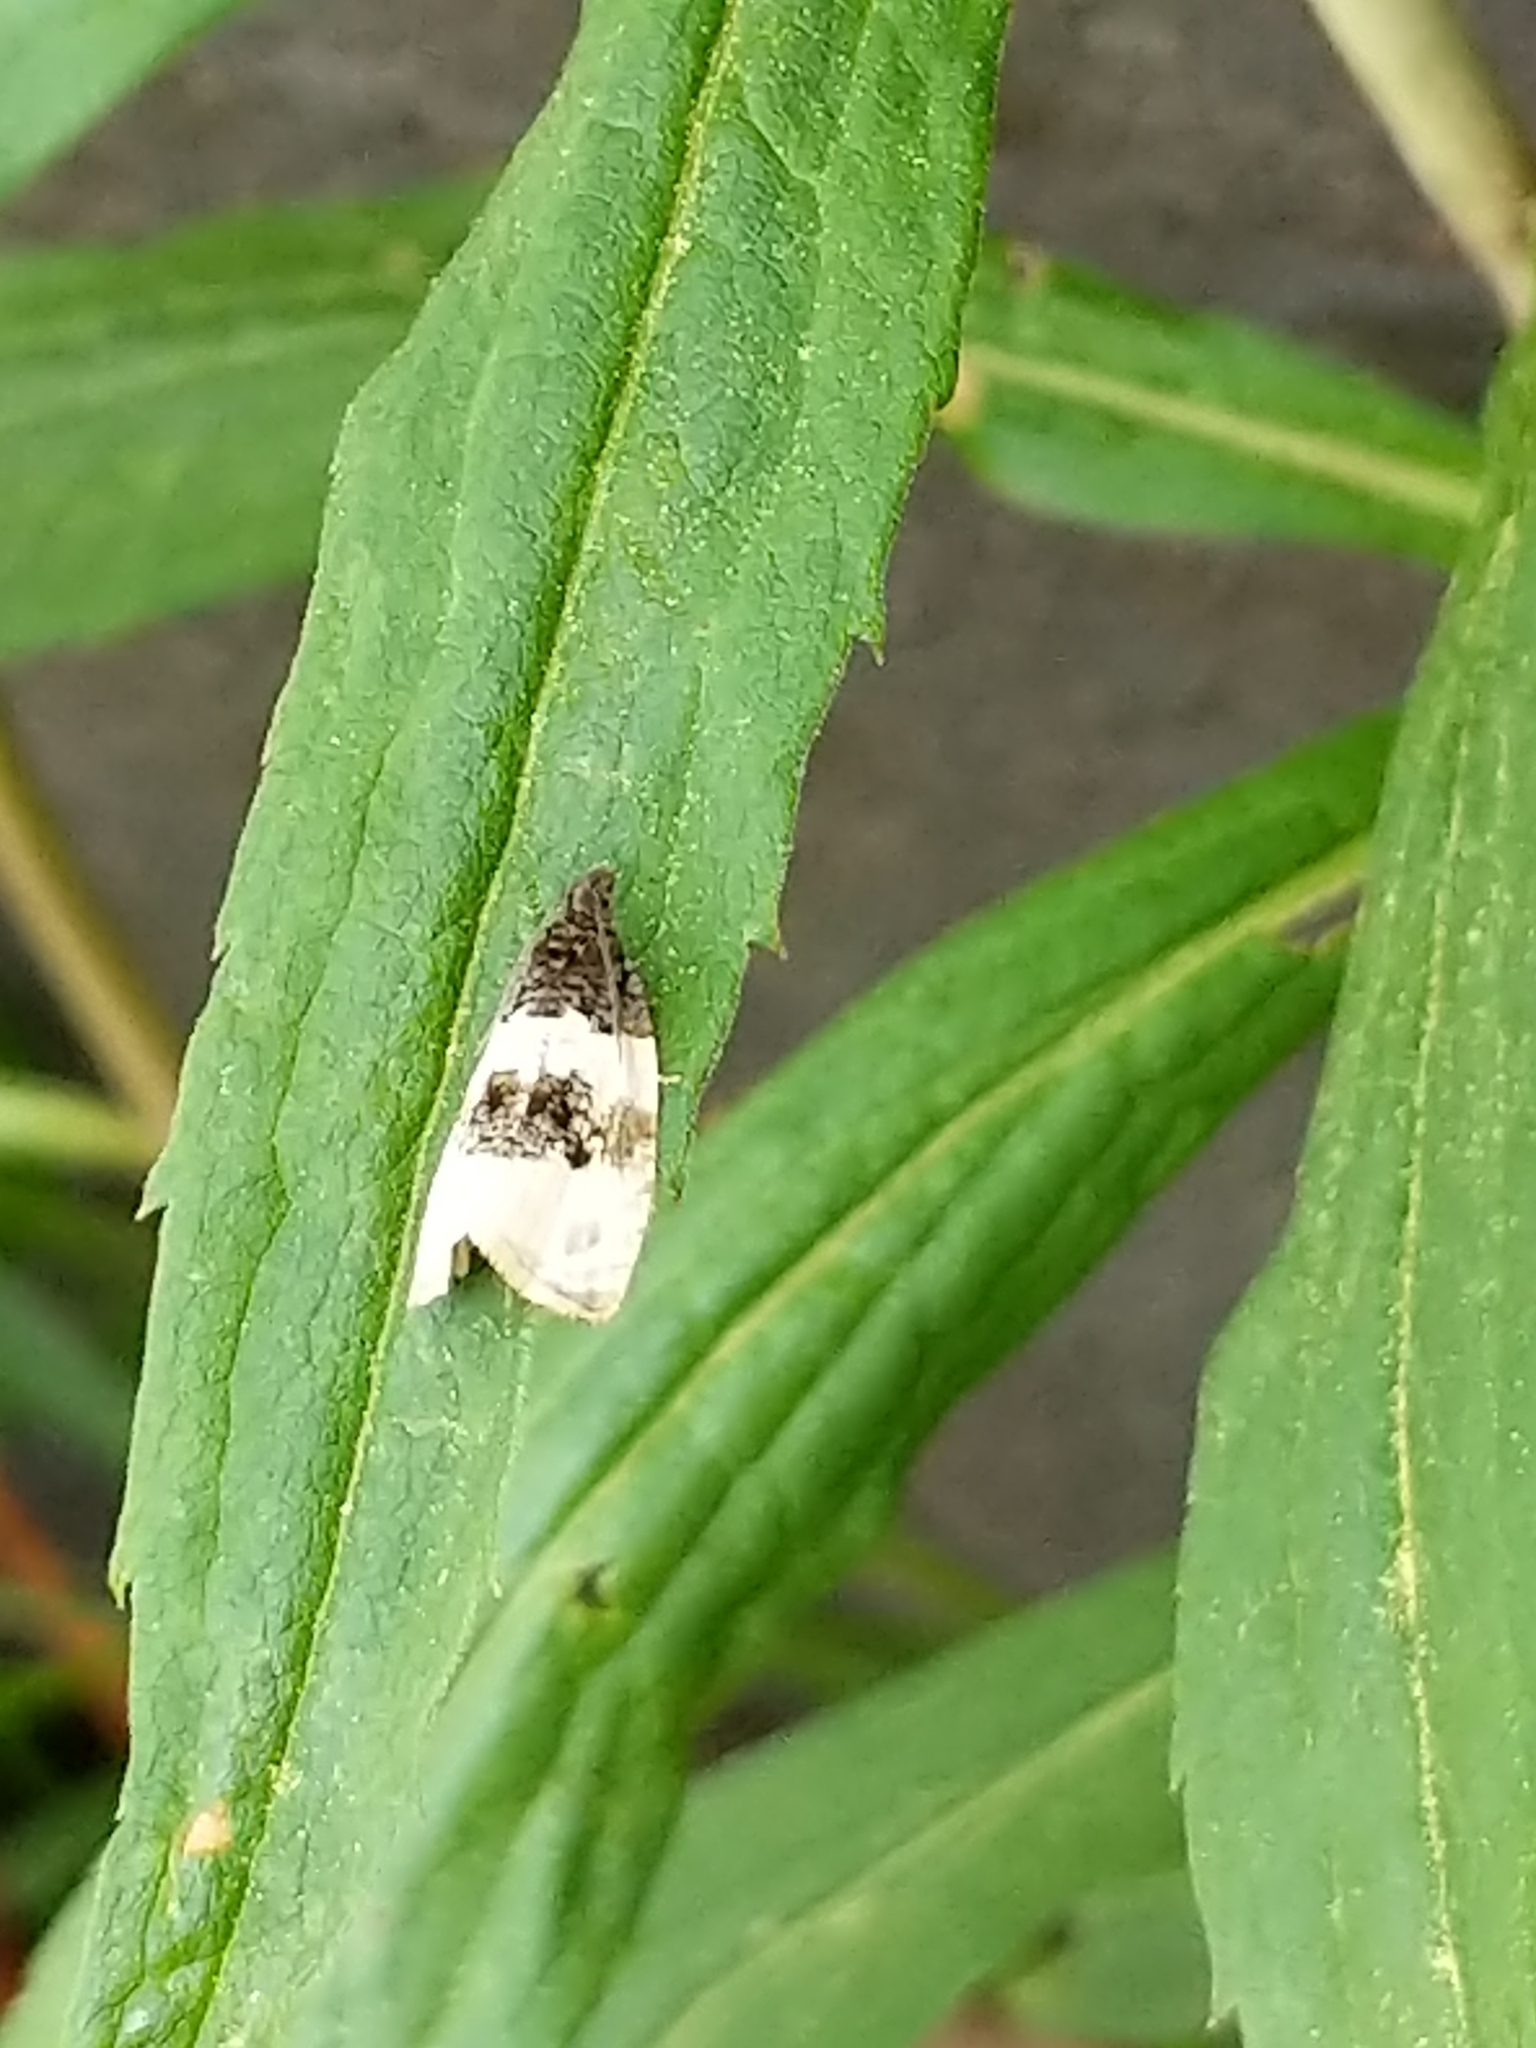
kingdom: Animalia
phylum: Arthropoda
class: Insecta
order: Lepidoptera
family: Tortricidae
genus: Olethreutes
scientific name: Olethreutes bipartitana
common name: Divided olethreutes moth
